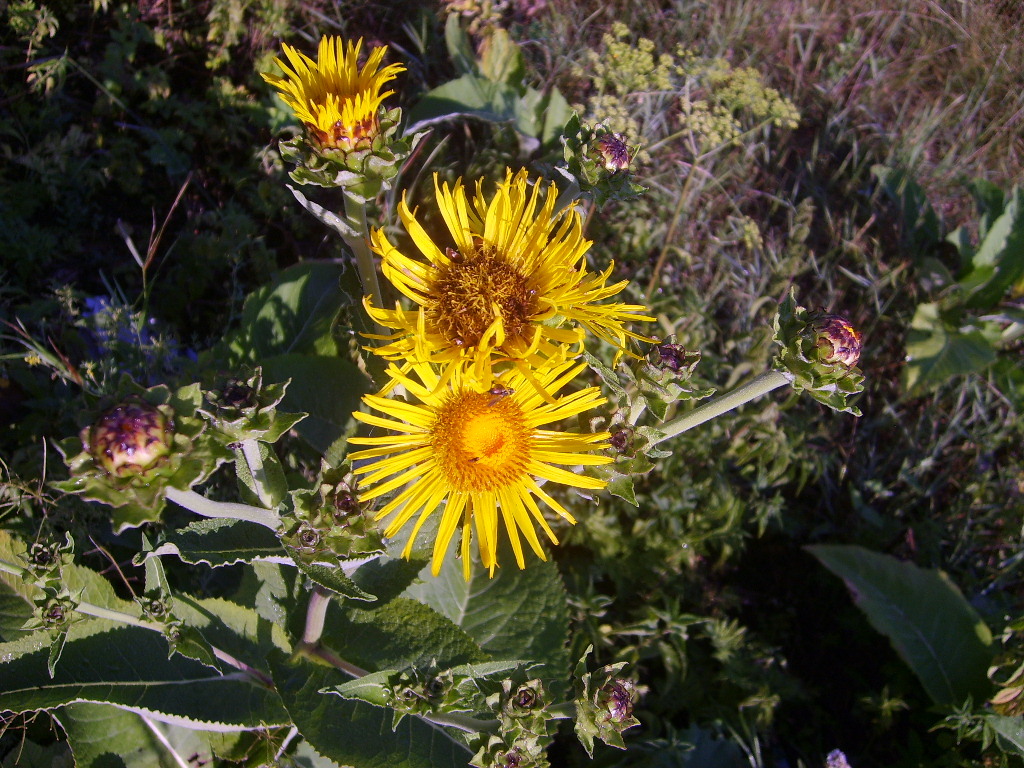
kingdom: Plantae
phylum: Tracheophyta
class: Magnoliopsida
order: Asterales
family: Asteraceae
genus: Inula
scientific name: Inula helenium
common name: Elecampane
